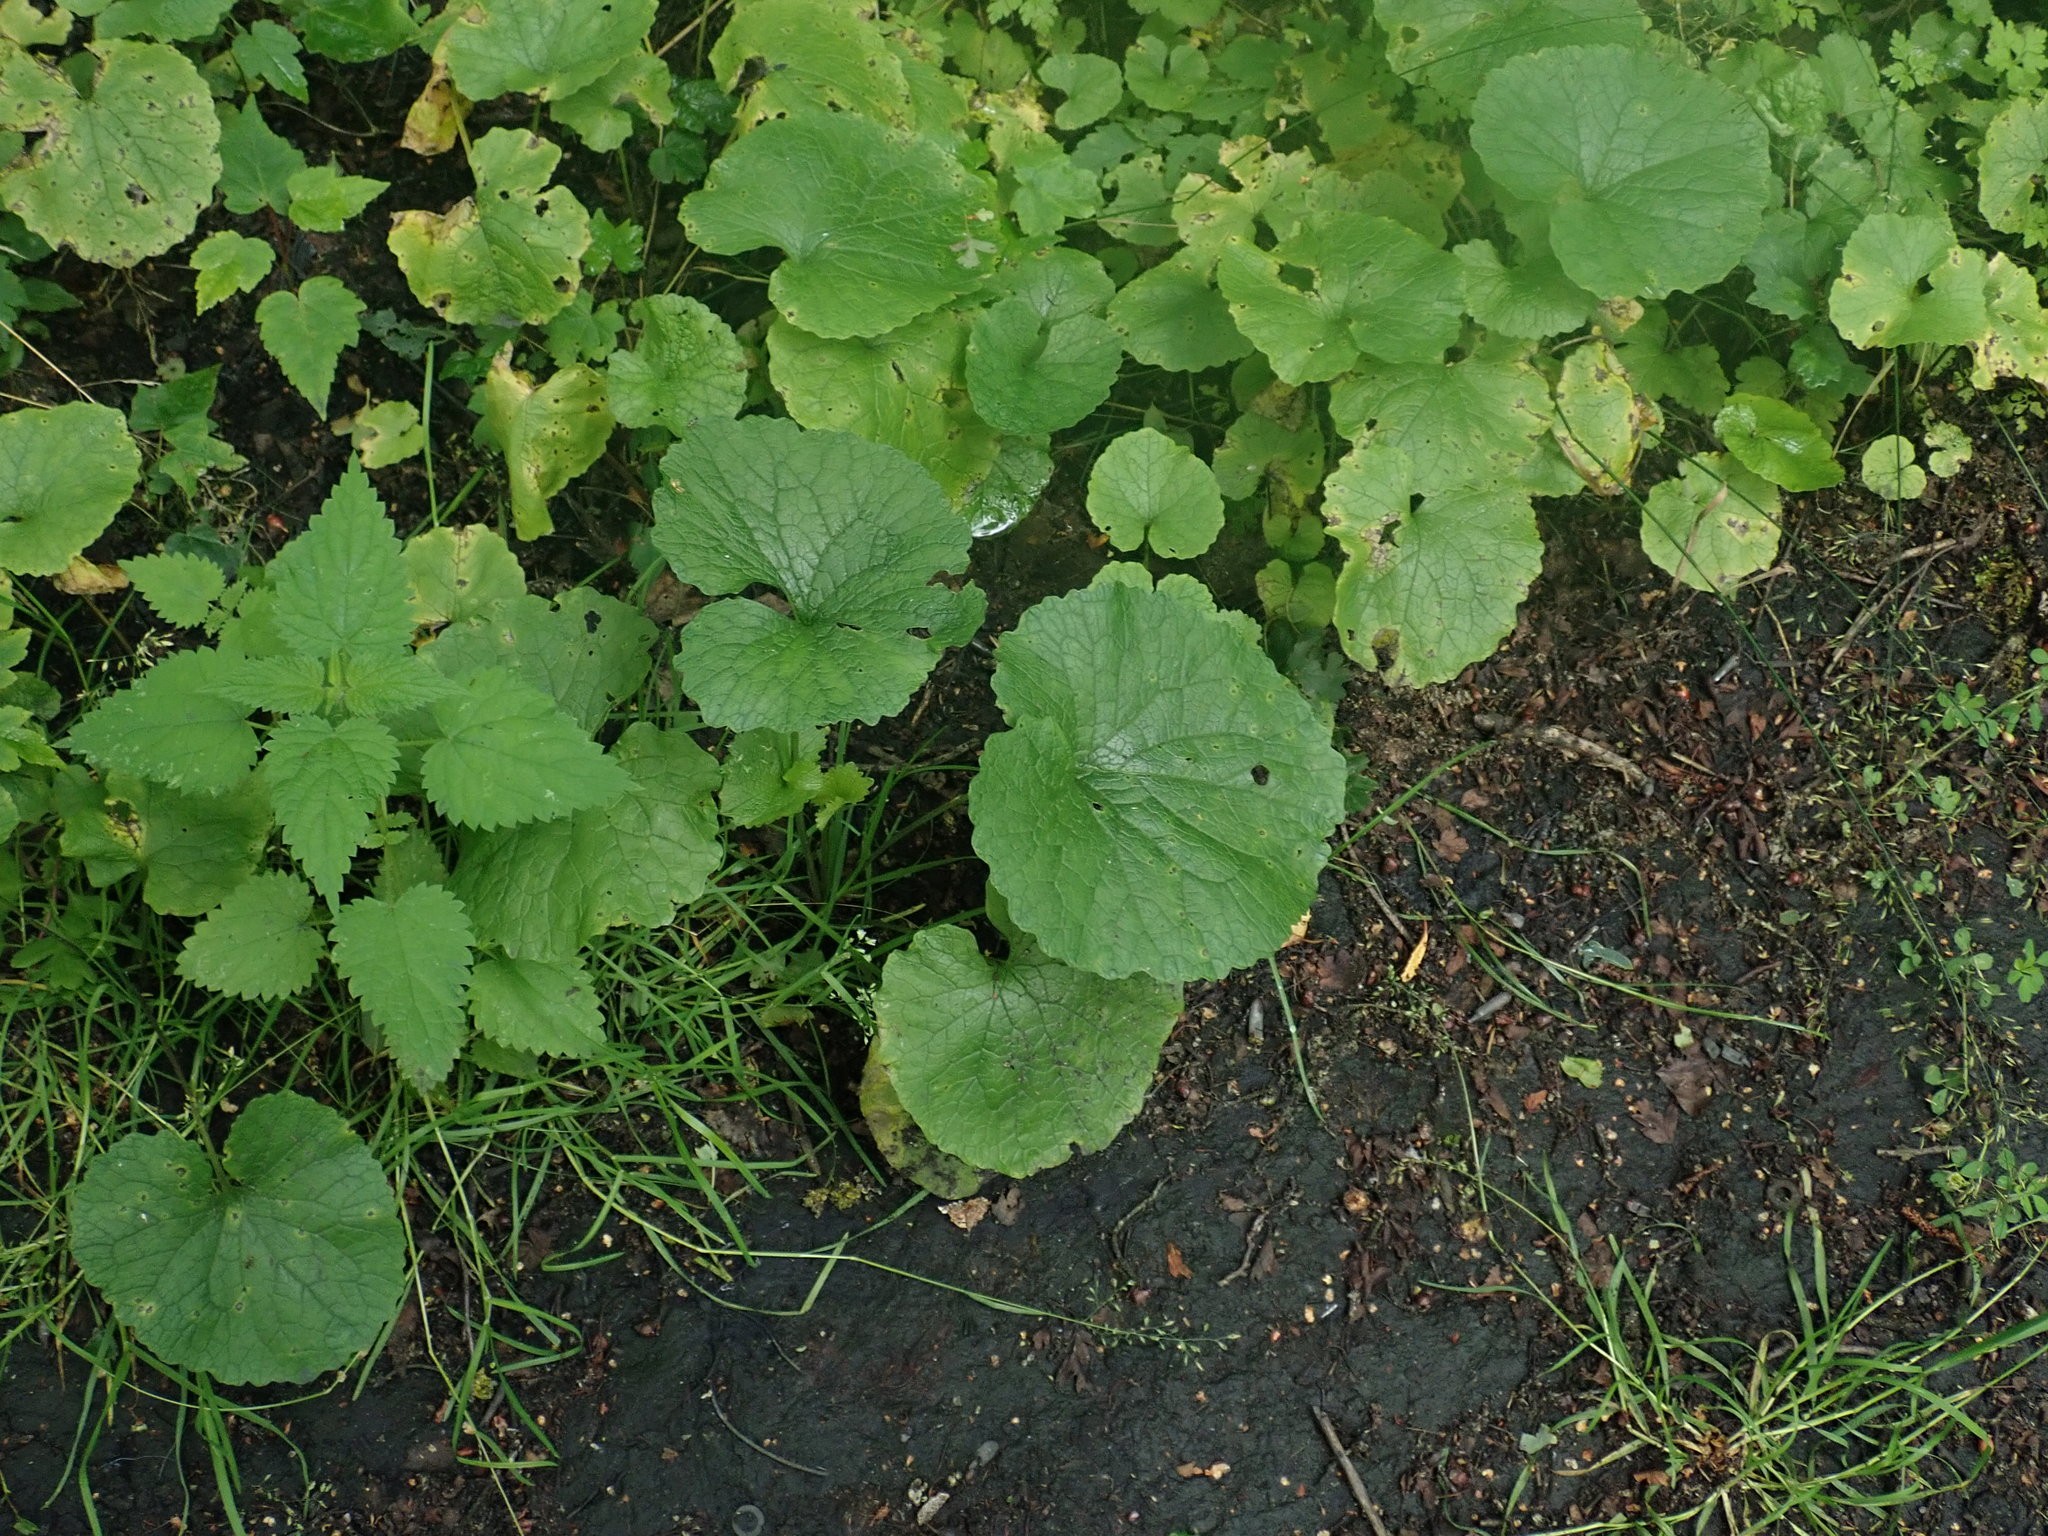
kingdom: Plantae
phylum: Tracheophyta
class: Magnoliopsida
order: Brassicales
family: Brassicaceae
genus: Alliaria
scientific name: Alliaria petiolata
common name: Garlic mustard
